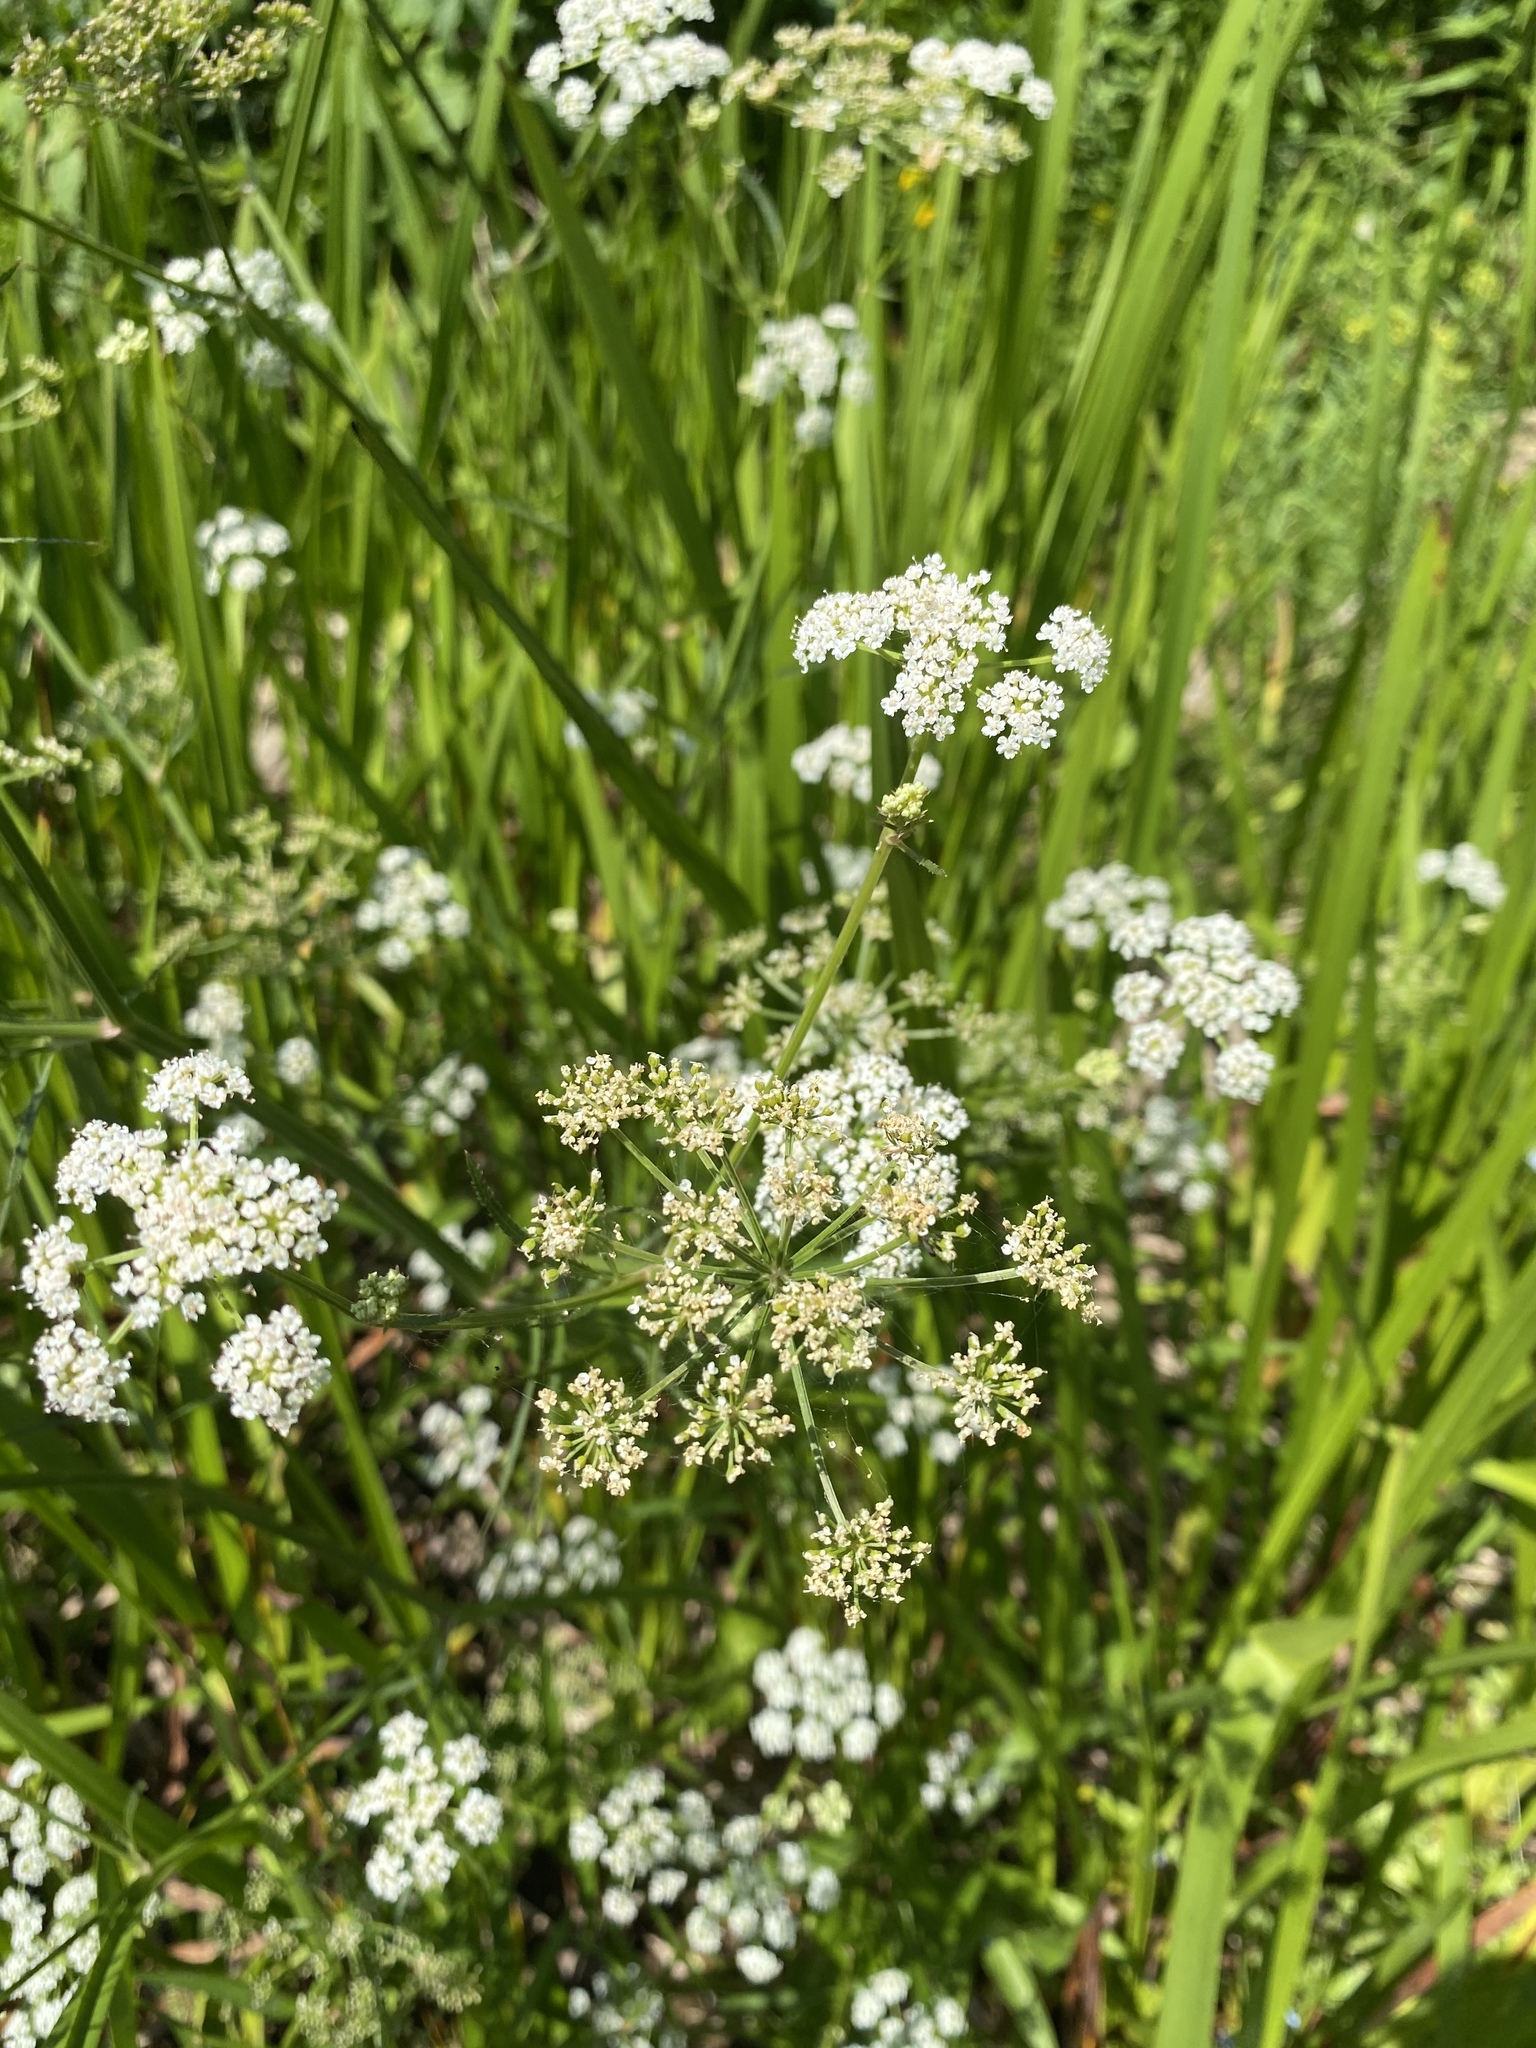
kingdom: Plantae
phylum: Tracheophyta
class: Magnoliopsida
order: Apiales
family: Apiaceae
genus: Sium
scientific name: Sium suave
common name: Hemlock water-parsnip
